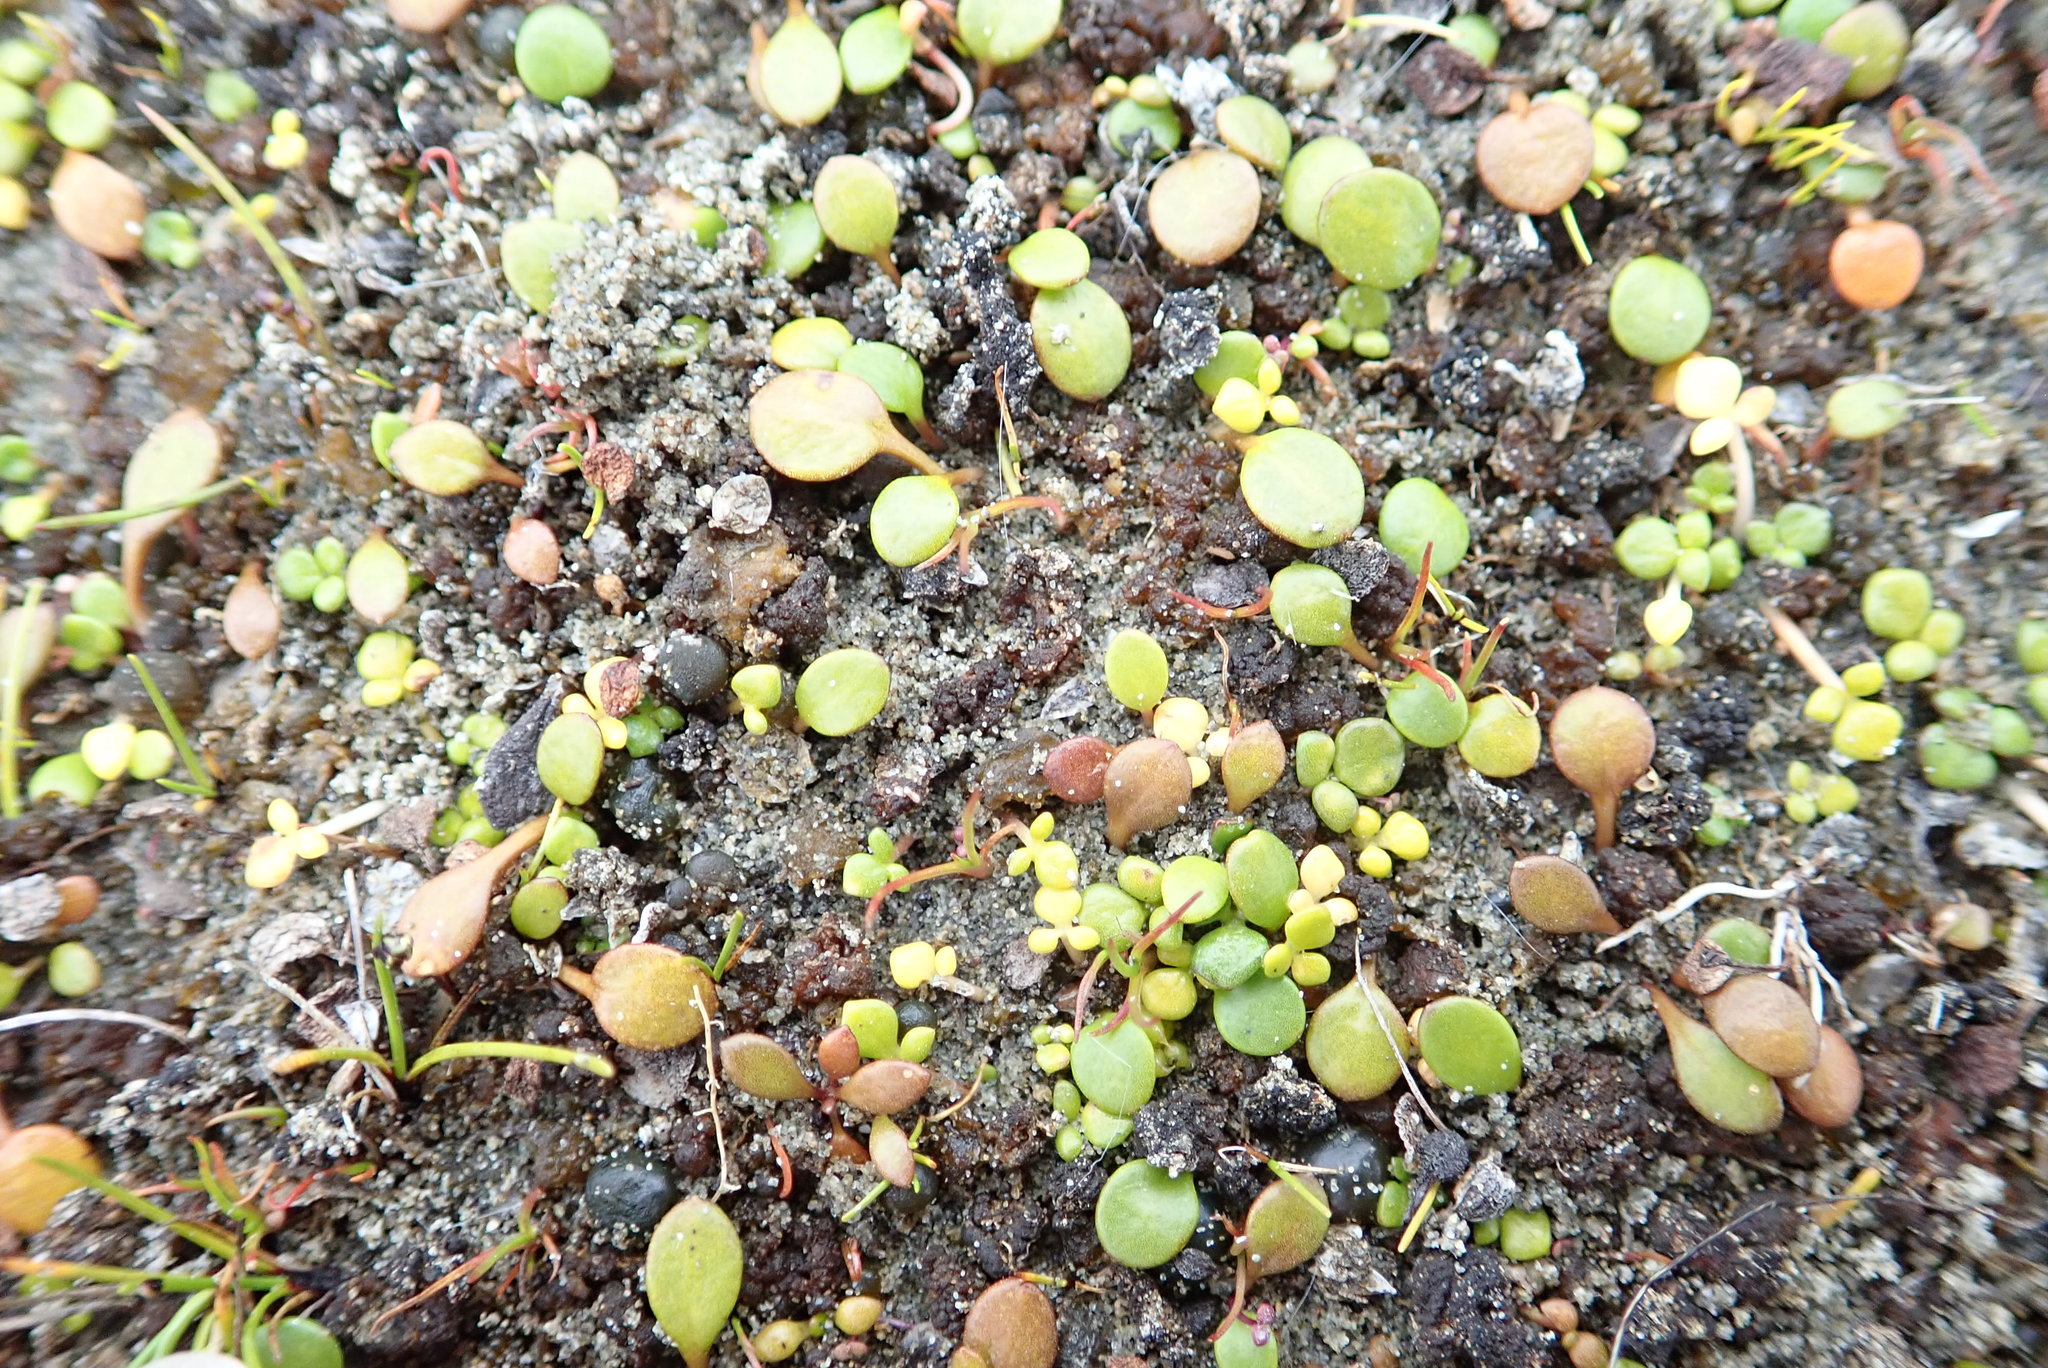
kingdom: Plantae
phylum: Tracheophyta
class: Magnoliopsida
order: Asterales
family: Goodeniaceae
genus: Goodenia
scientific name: Goodenia heenanii
